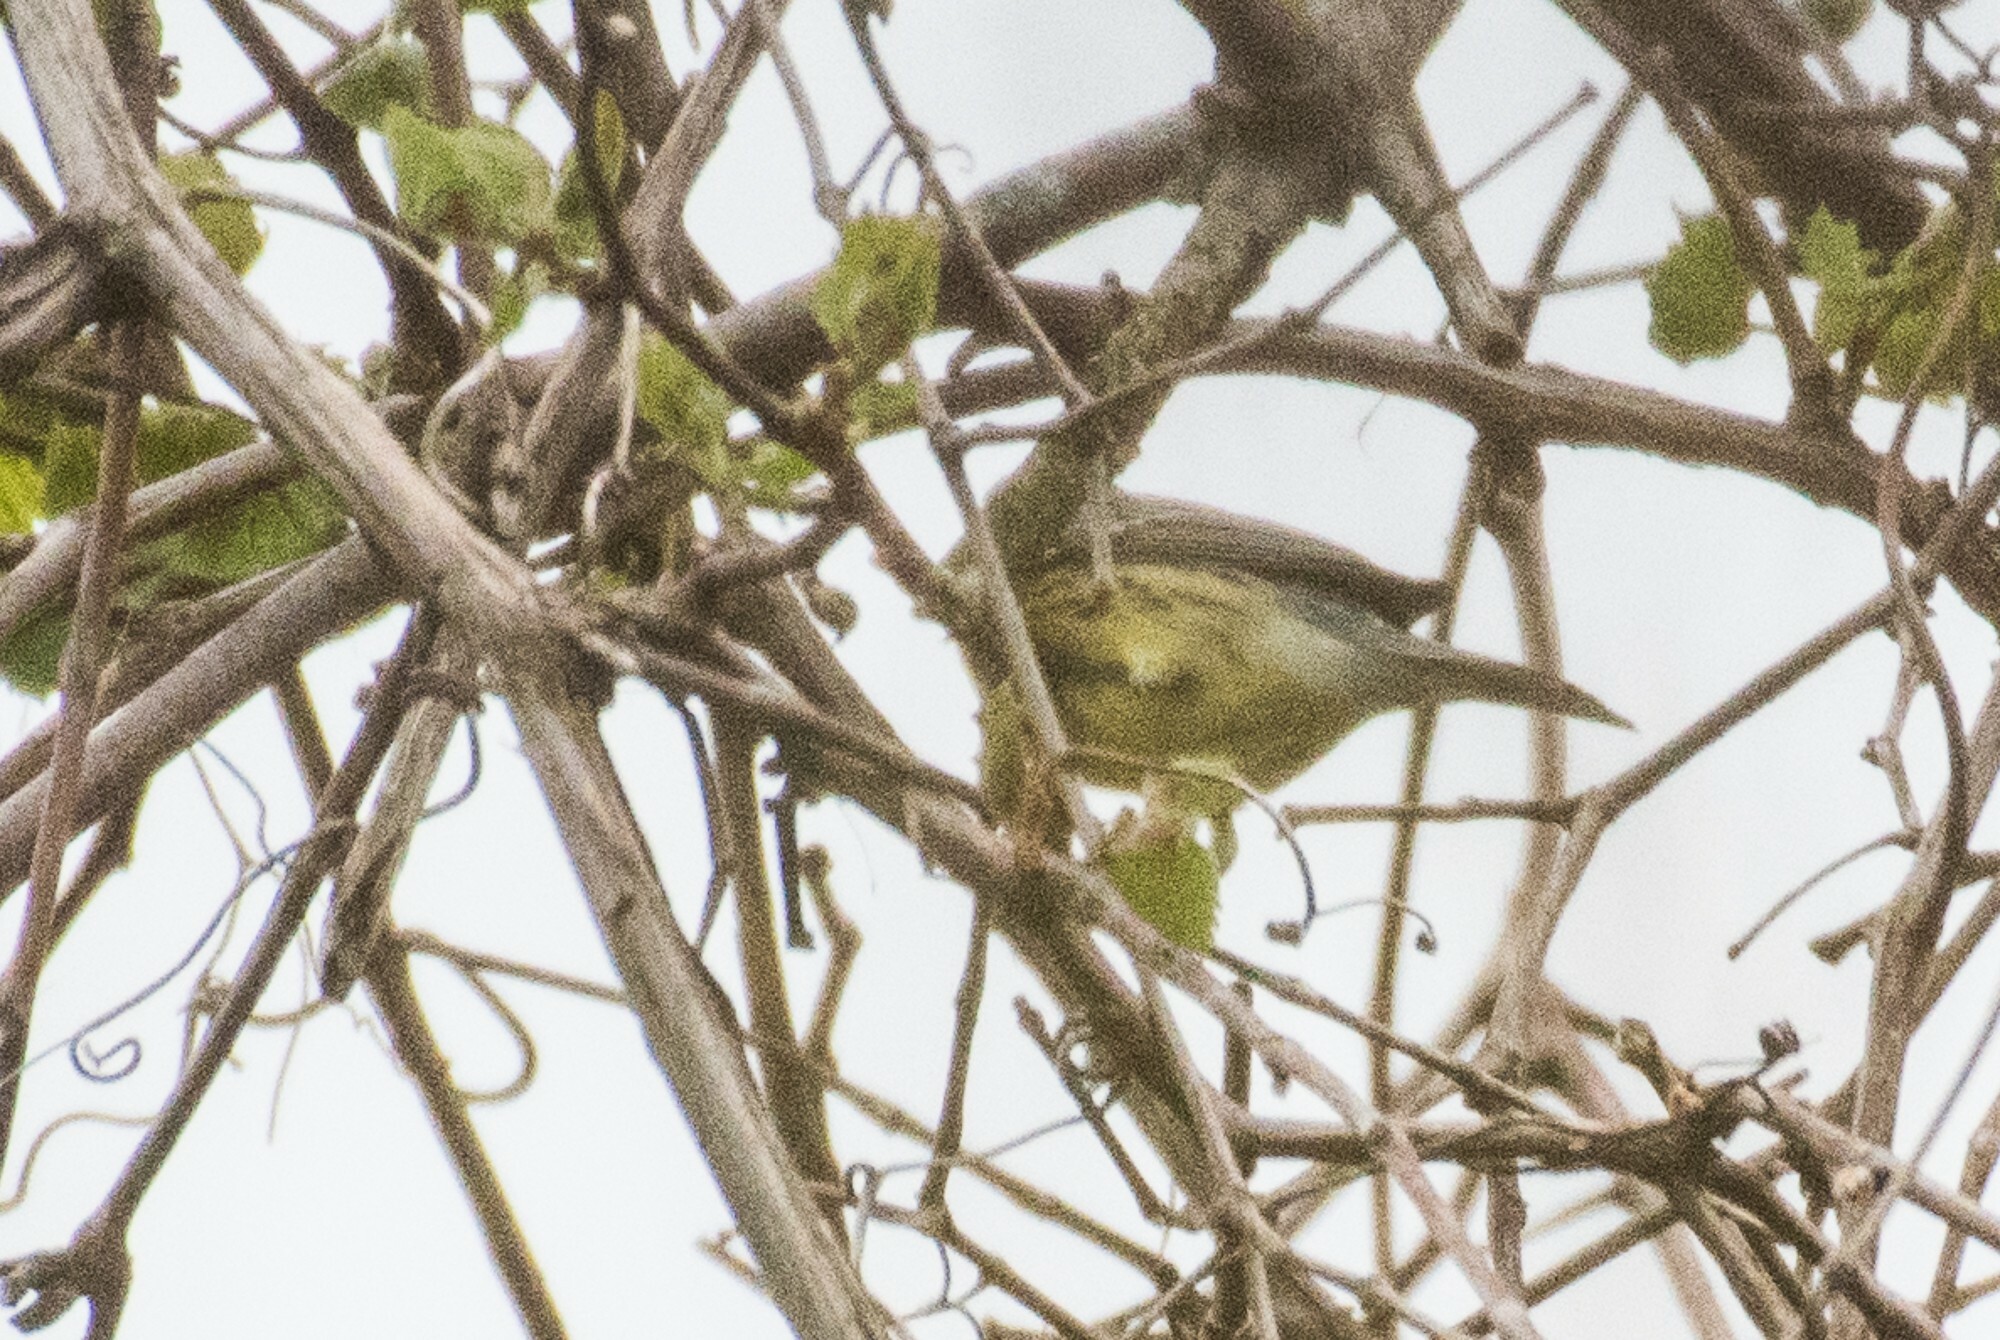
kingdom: Animalia
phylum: Chordata
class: Aves
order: Passeriformes
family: Parulidae
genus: Setophaga
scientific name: Setophaga kirtlandii
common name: Kirtland's warbler
